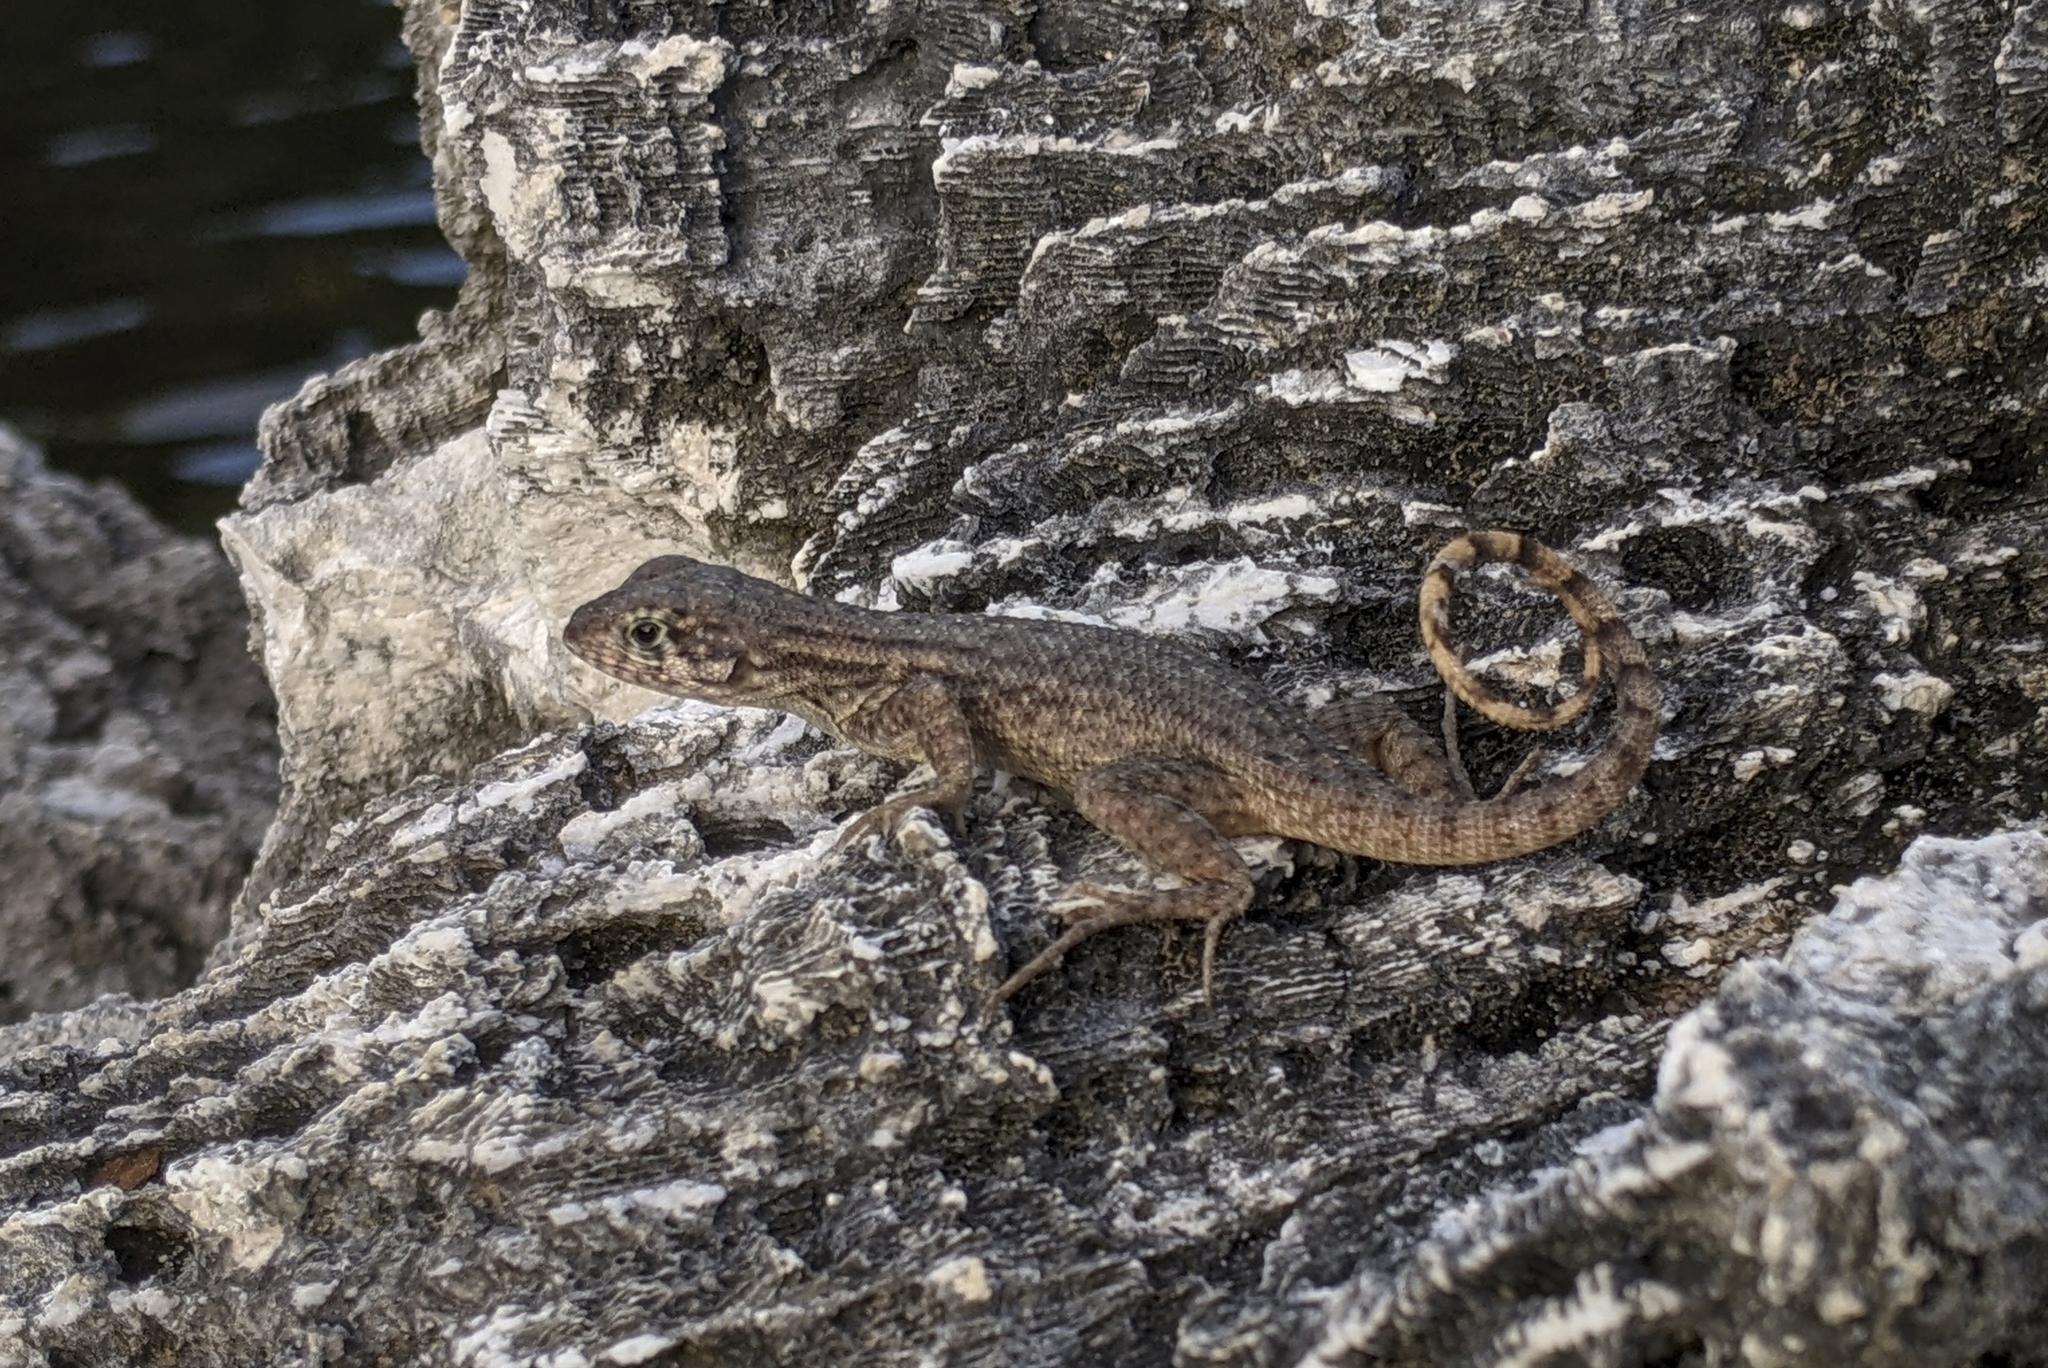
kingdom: Animalia
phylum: Chordata
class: Squamata
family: Leiocephalidae
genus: Leiocephalus
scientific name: Leiocephalus carinatus
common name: Northern curly-tailed lizard
